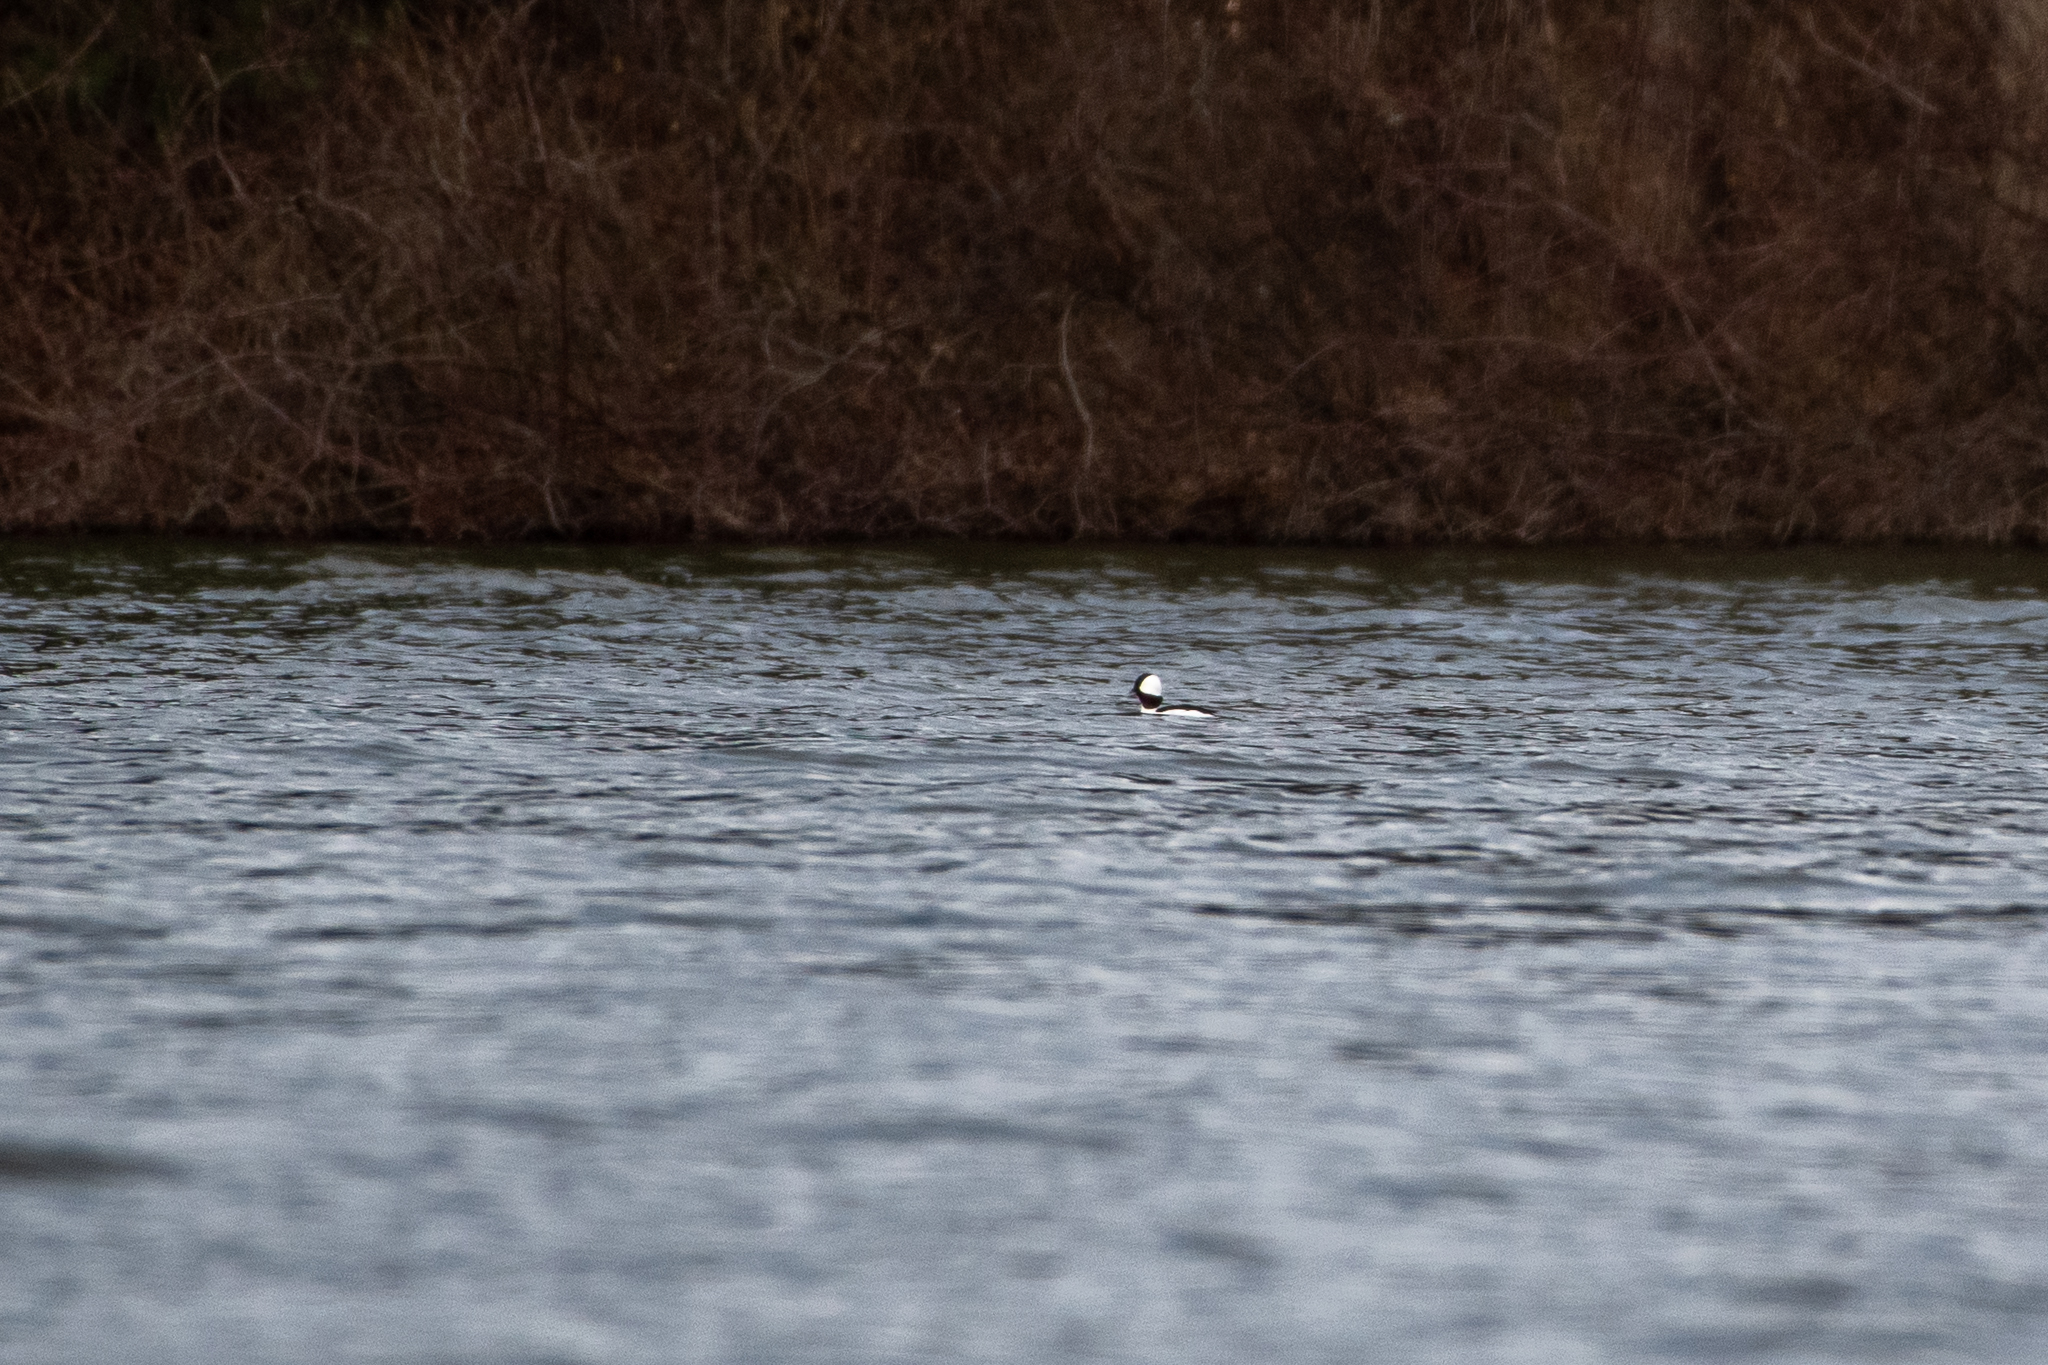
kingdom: Animalia
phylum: Chordata
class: Aves
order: Anseriformes
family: Anatidae
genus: Bucephala
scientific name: Bucephala albeola
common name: Bufflehead
